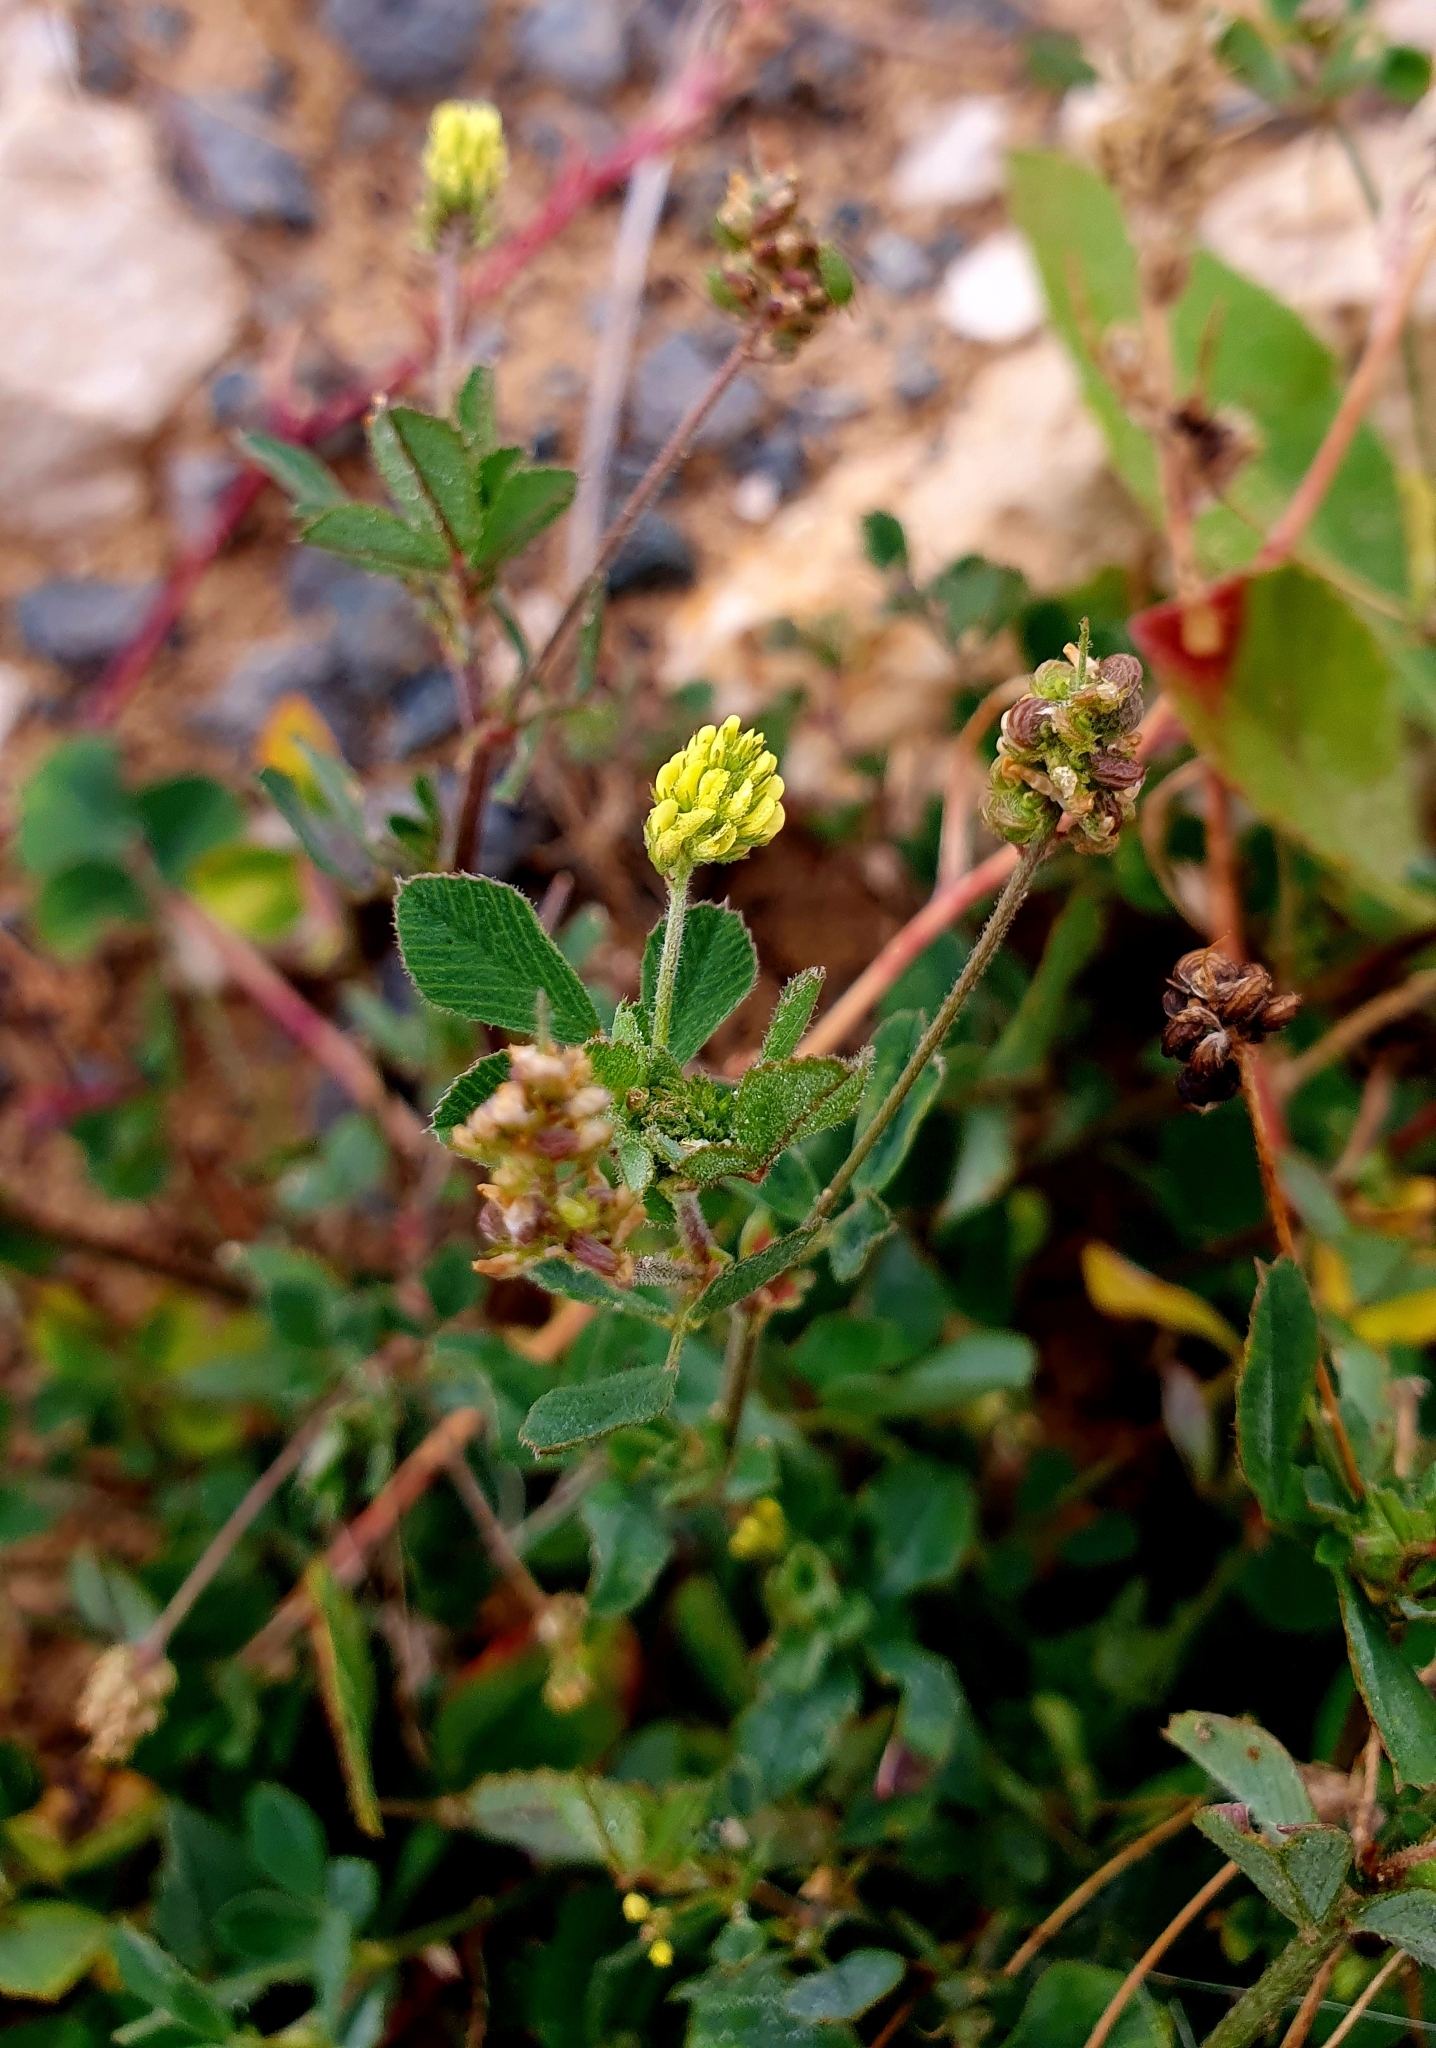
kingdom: Plantae
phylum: Tracheophyta
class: Magnoliopsida
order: Fabales
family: Fabaceae
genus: Medicago
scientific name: Medicago lupulina
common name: Black medick
